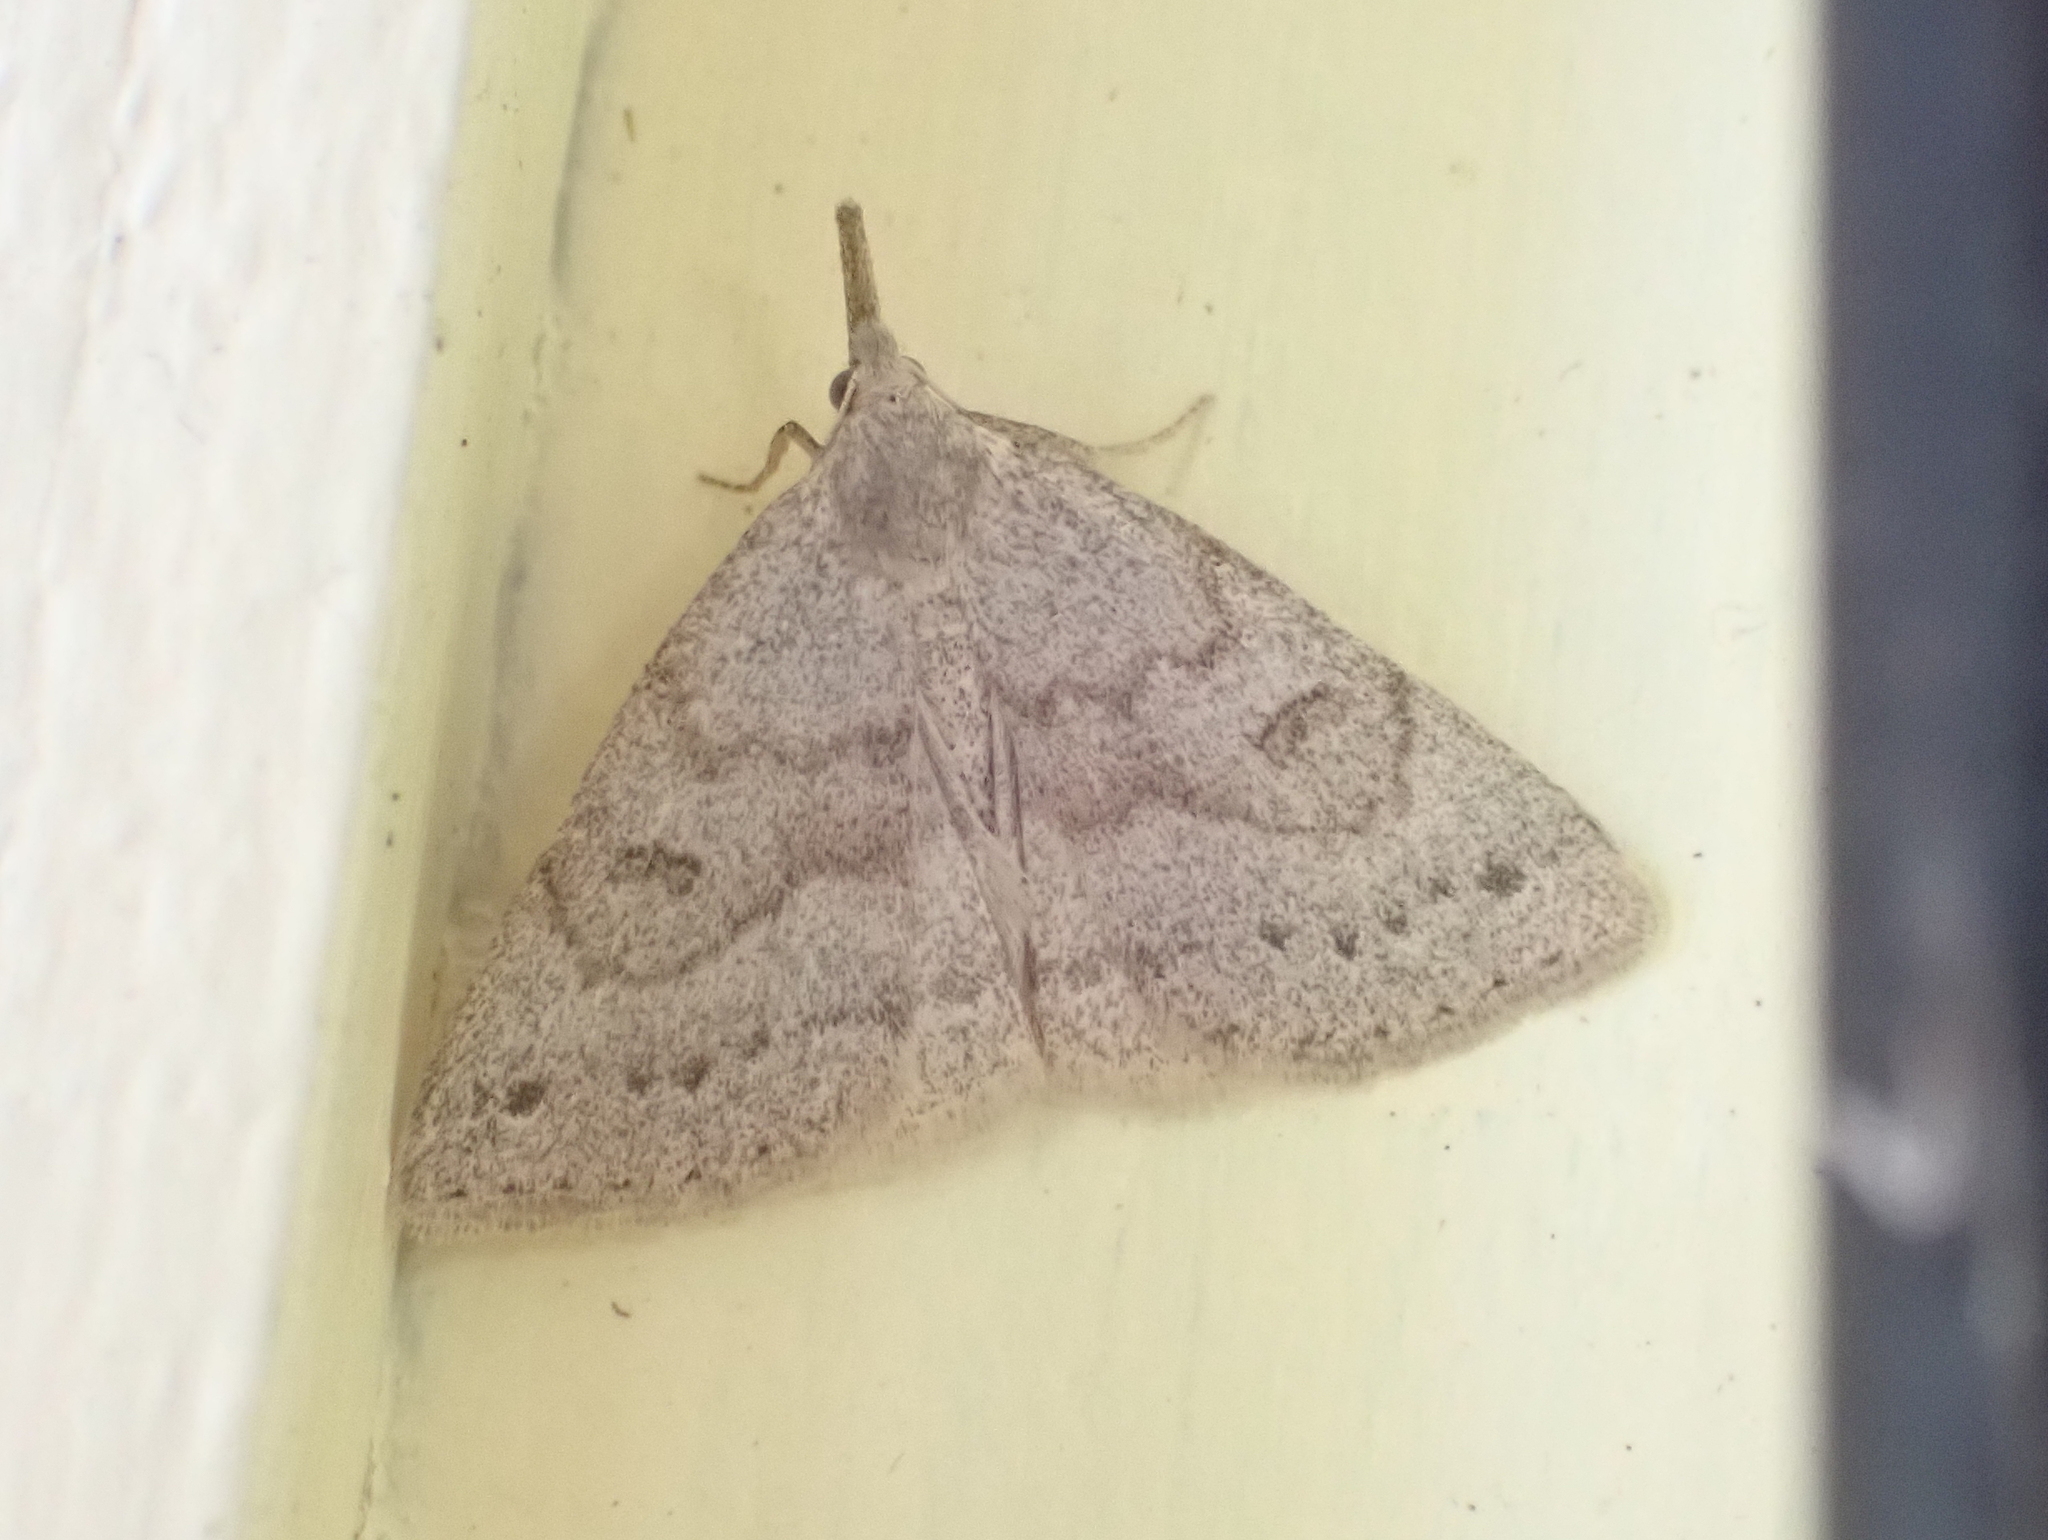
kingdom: Animalia
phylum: Arthropoda
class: Insecta
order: Lepidoptera
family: Erebidae
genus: Macrochilo
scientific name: Macrochilo morbidalis
